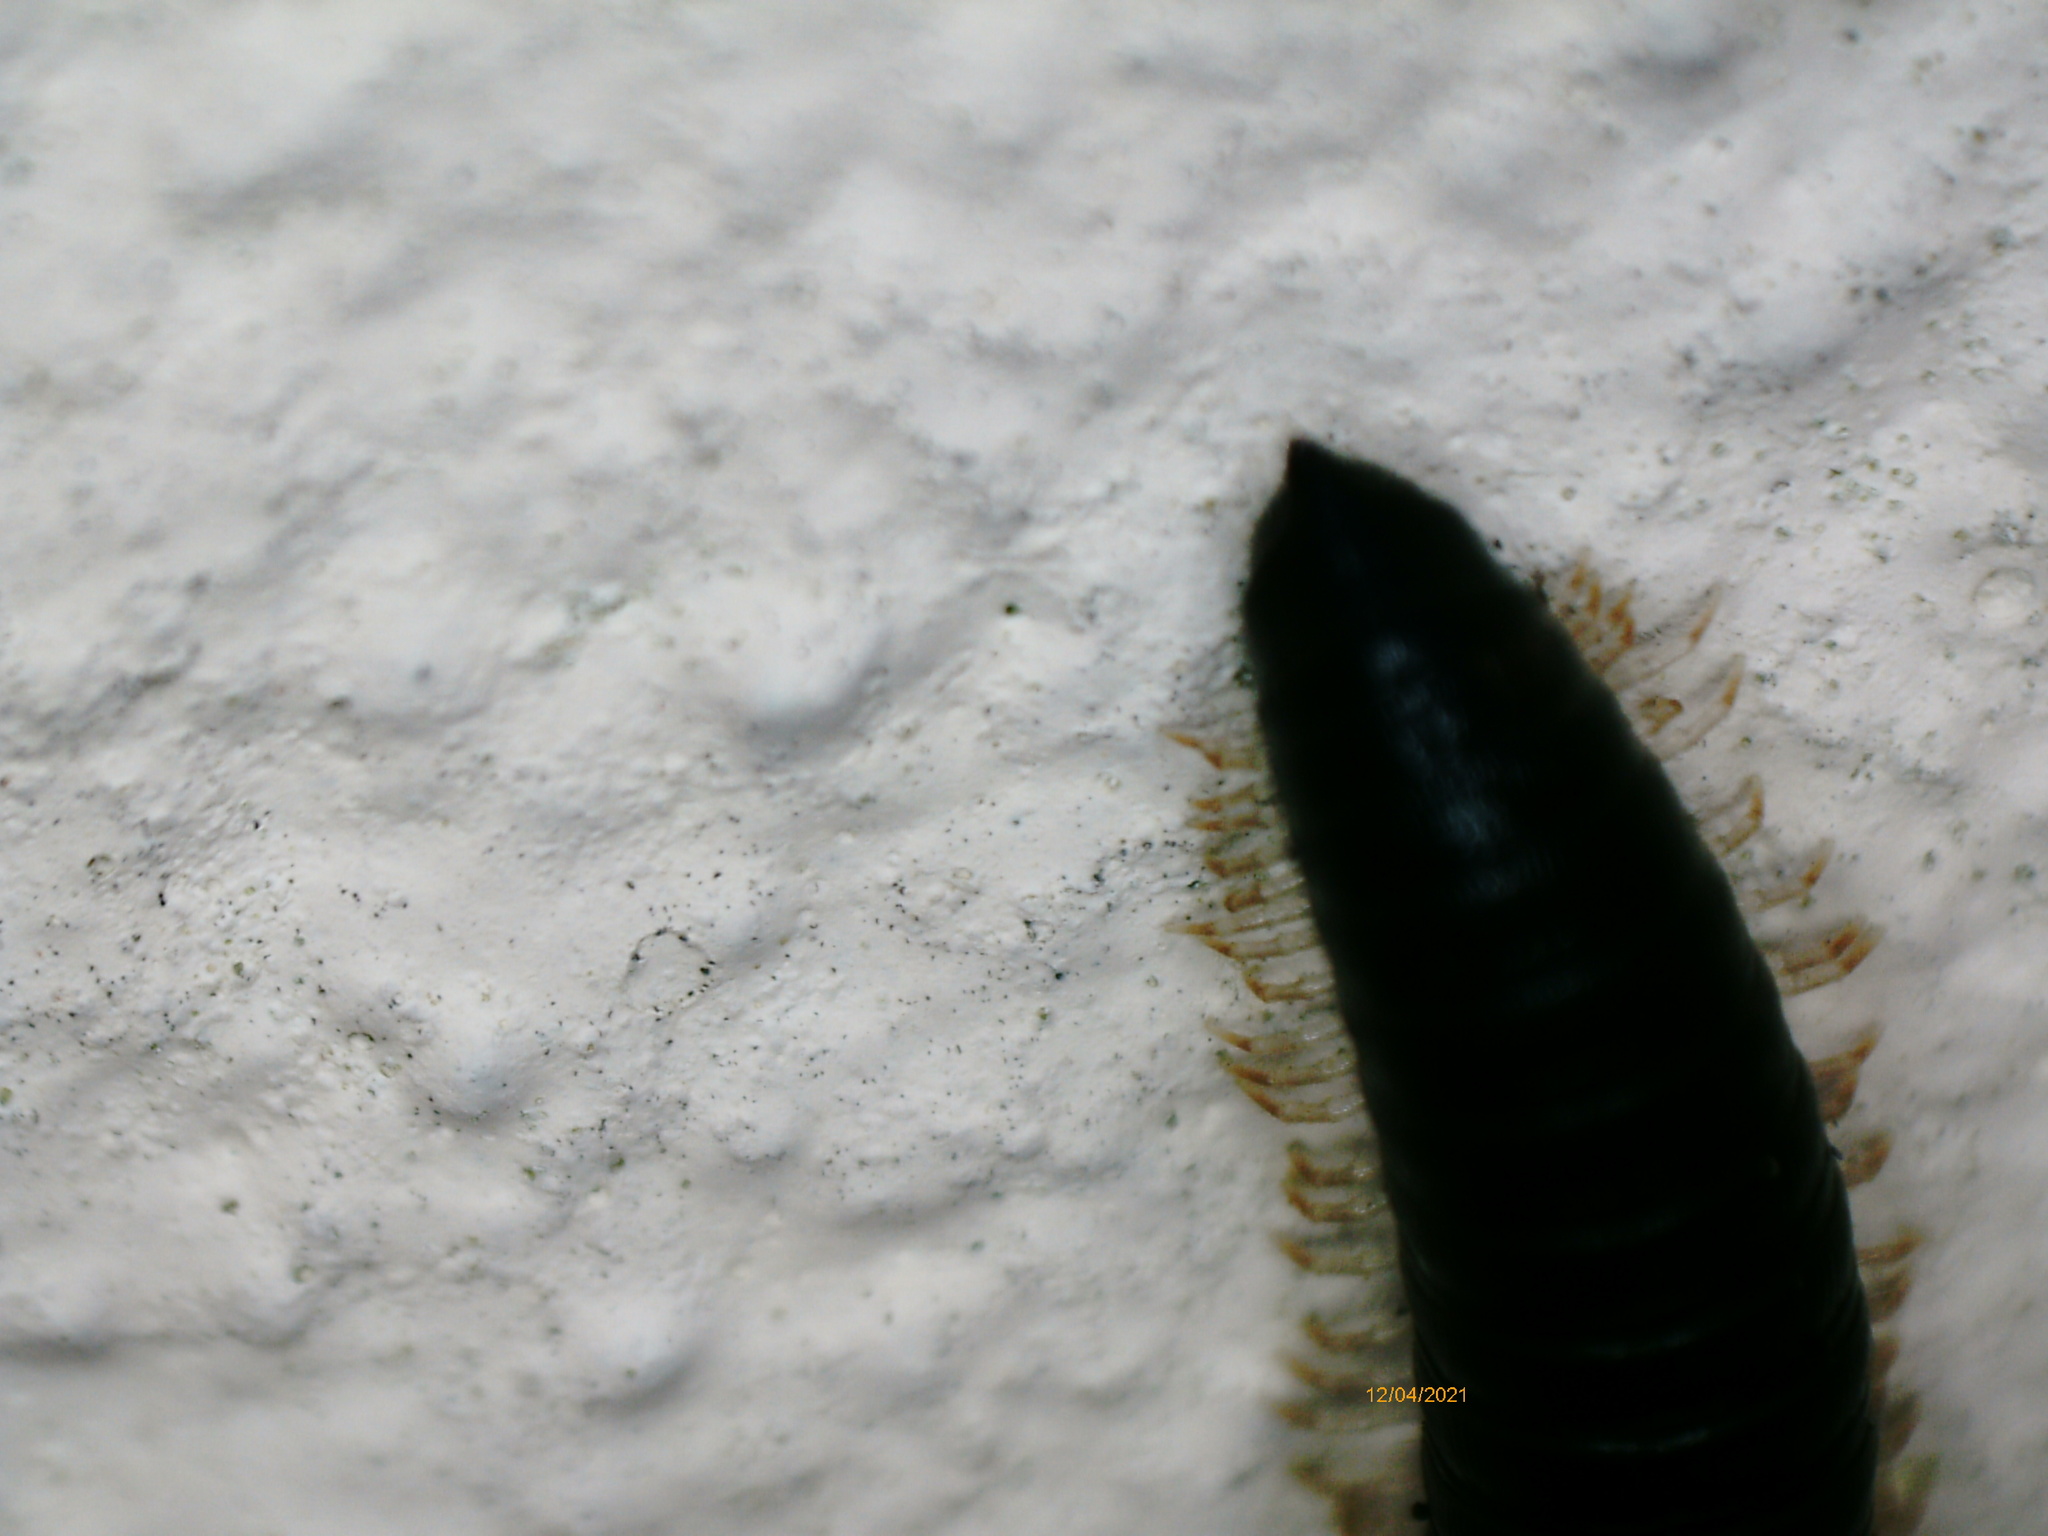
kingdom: Animalia
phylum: Arthropoda
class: Diplopoda
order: Julida
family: Julidae
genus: Tachypodoiulus
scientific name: Tachypodoiulus niger
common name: White-legged snake millipede
